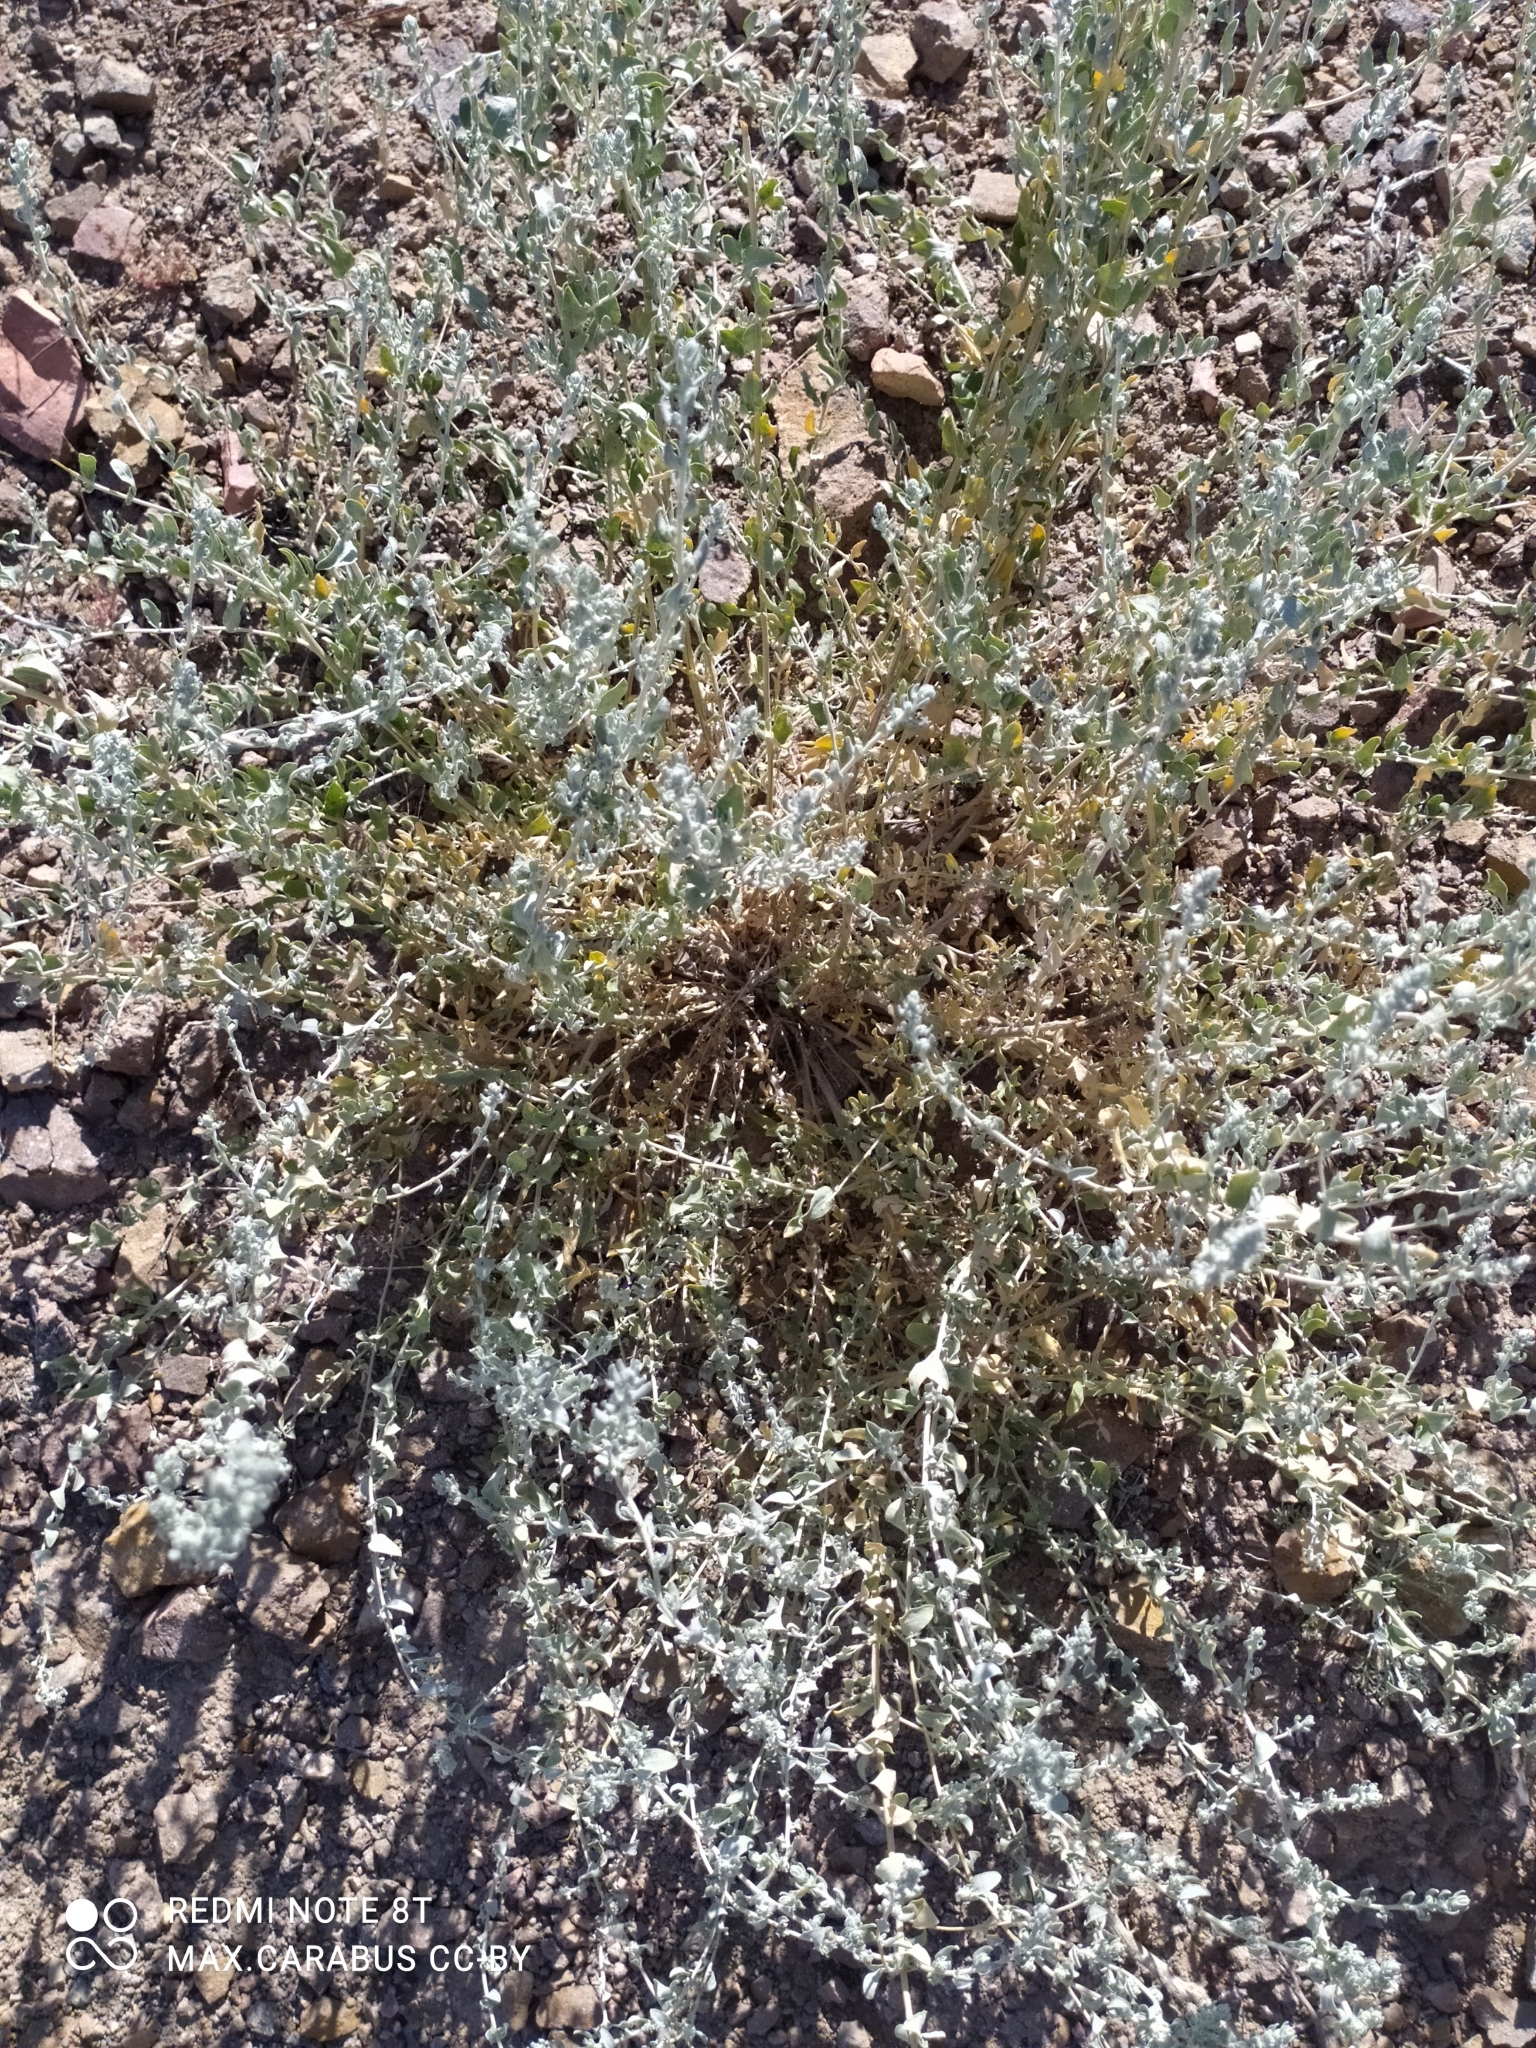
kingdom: Plantae
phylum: Tracheophyta
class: Magnoliopsida
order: Caryophyllales
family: Amaranthaceae
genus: Krascheninnikovia
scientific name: Krascheninnikovia ceratoides
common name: Pamirian winterfat
